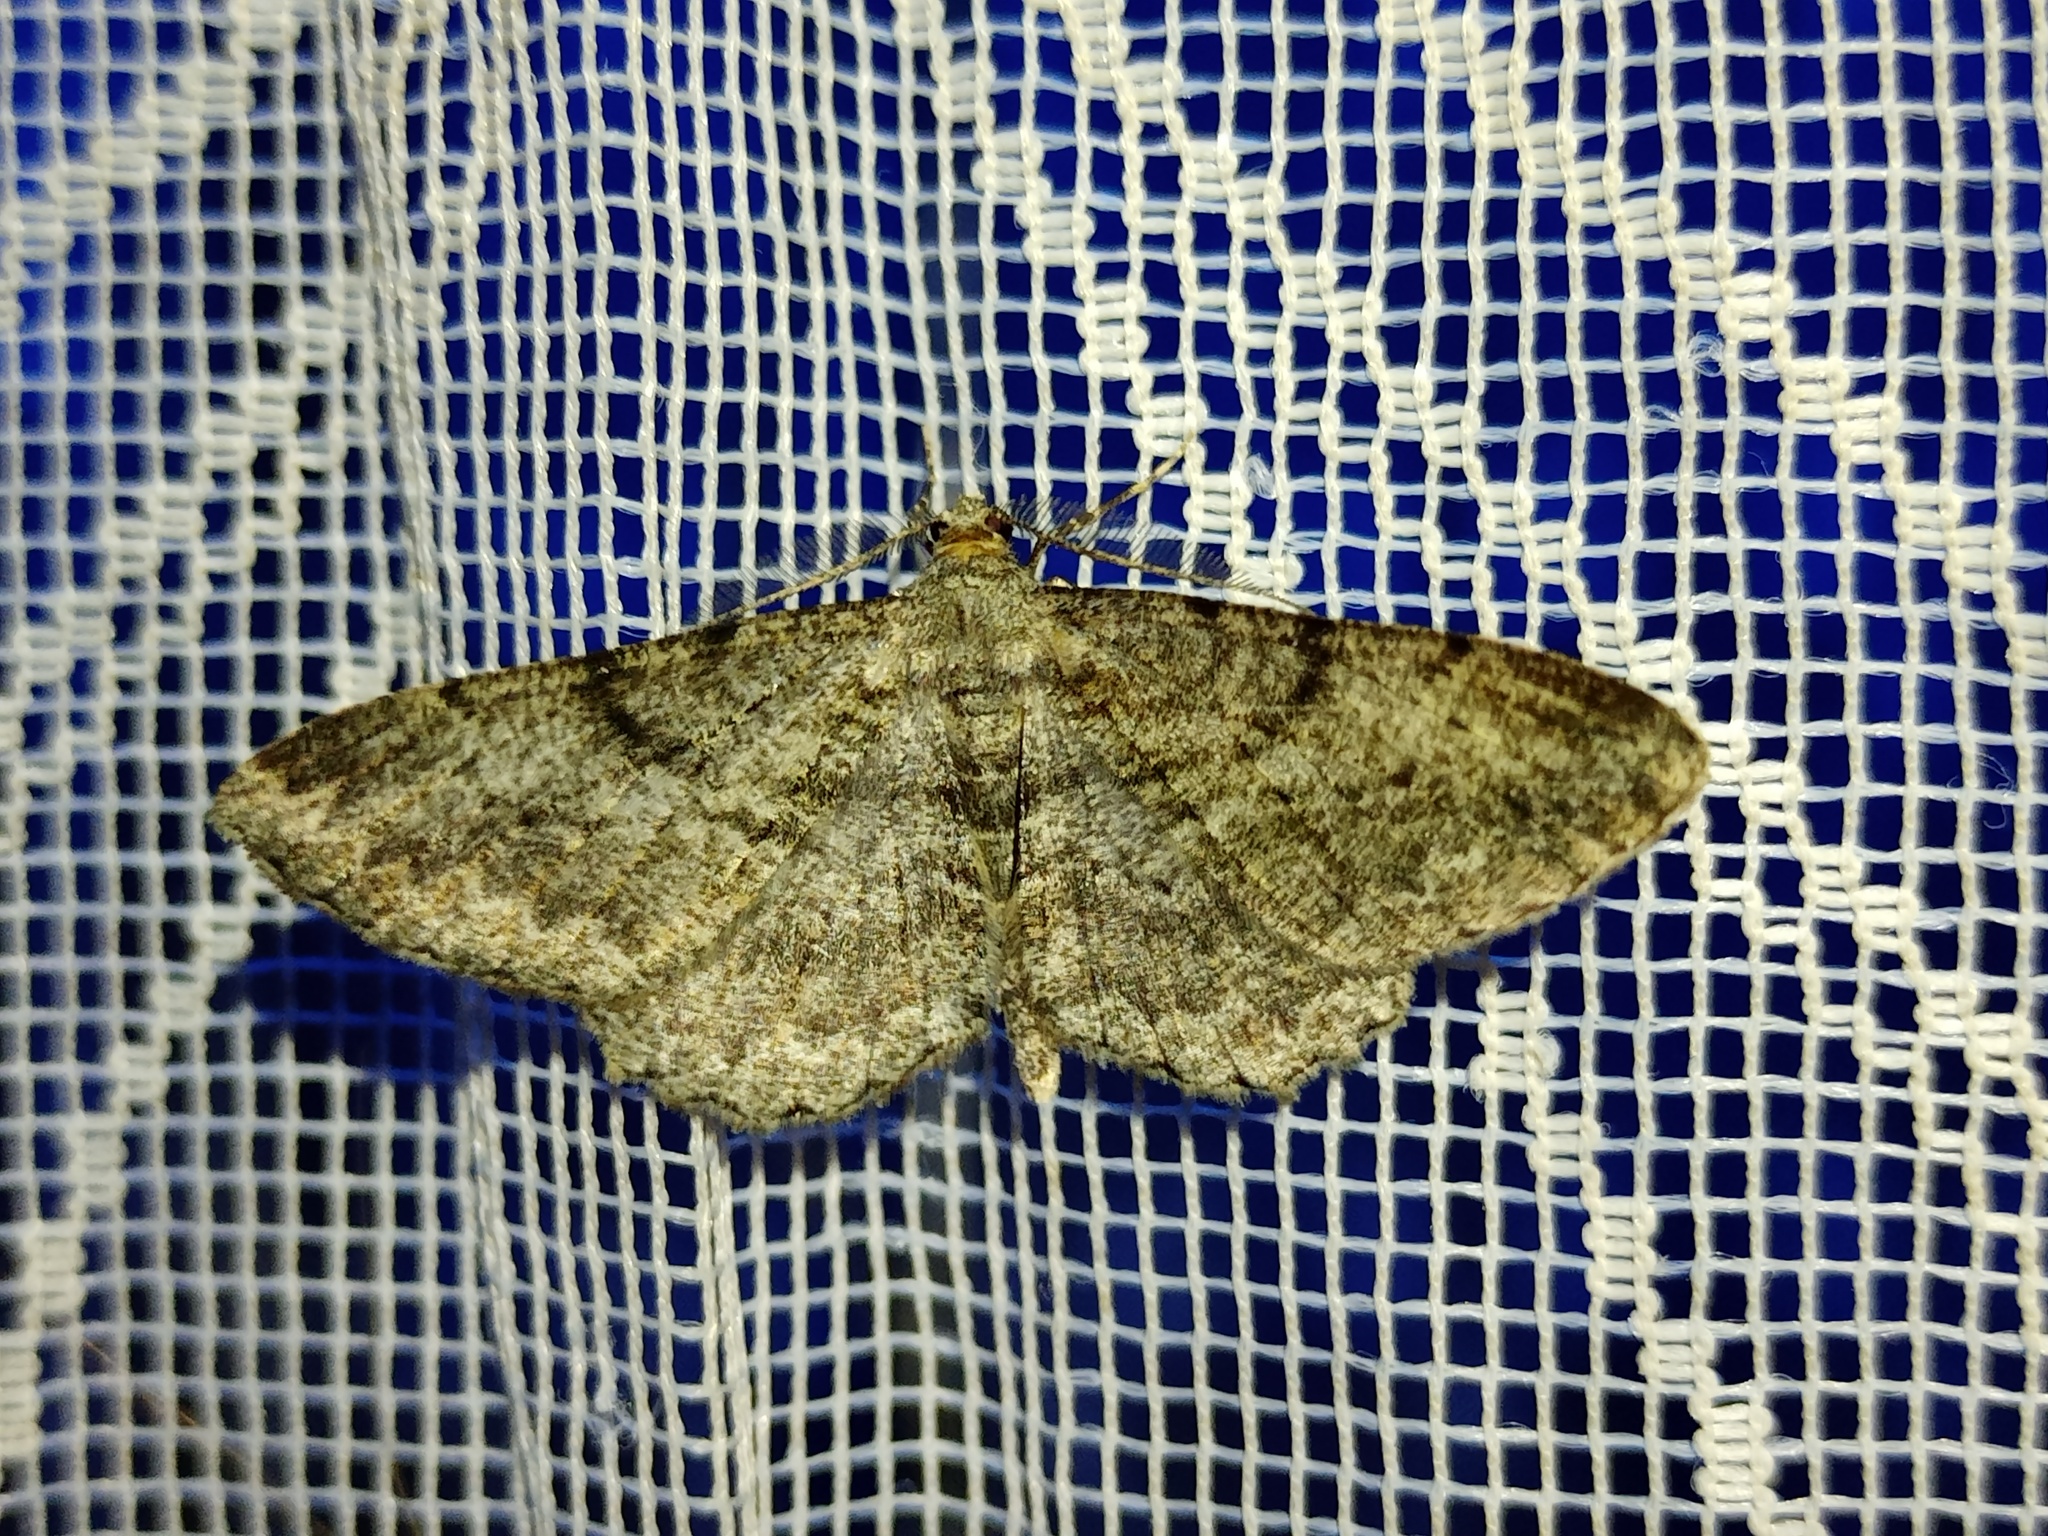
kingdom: Animalia
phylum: Arthropoda
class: Insecta
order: Lepidoptera
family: Geometridae
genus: Peribatodes
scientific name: Peribatodes rhomboidaria
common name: Willow beauty
